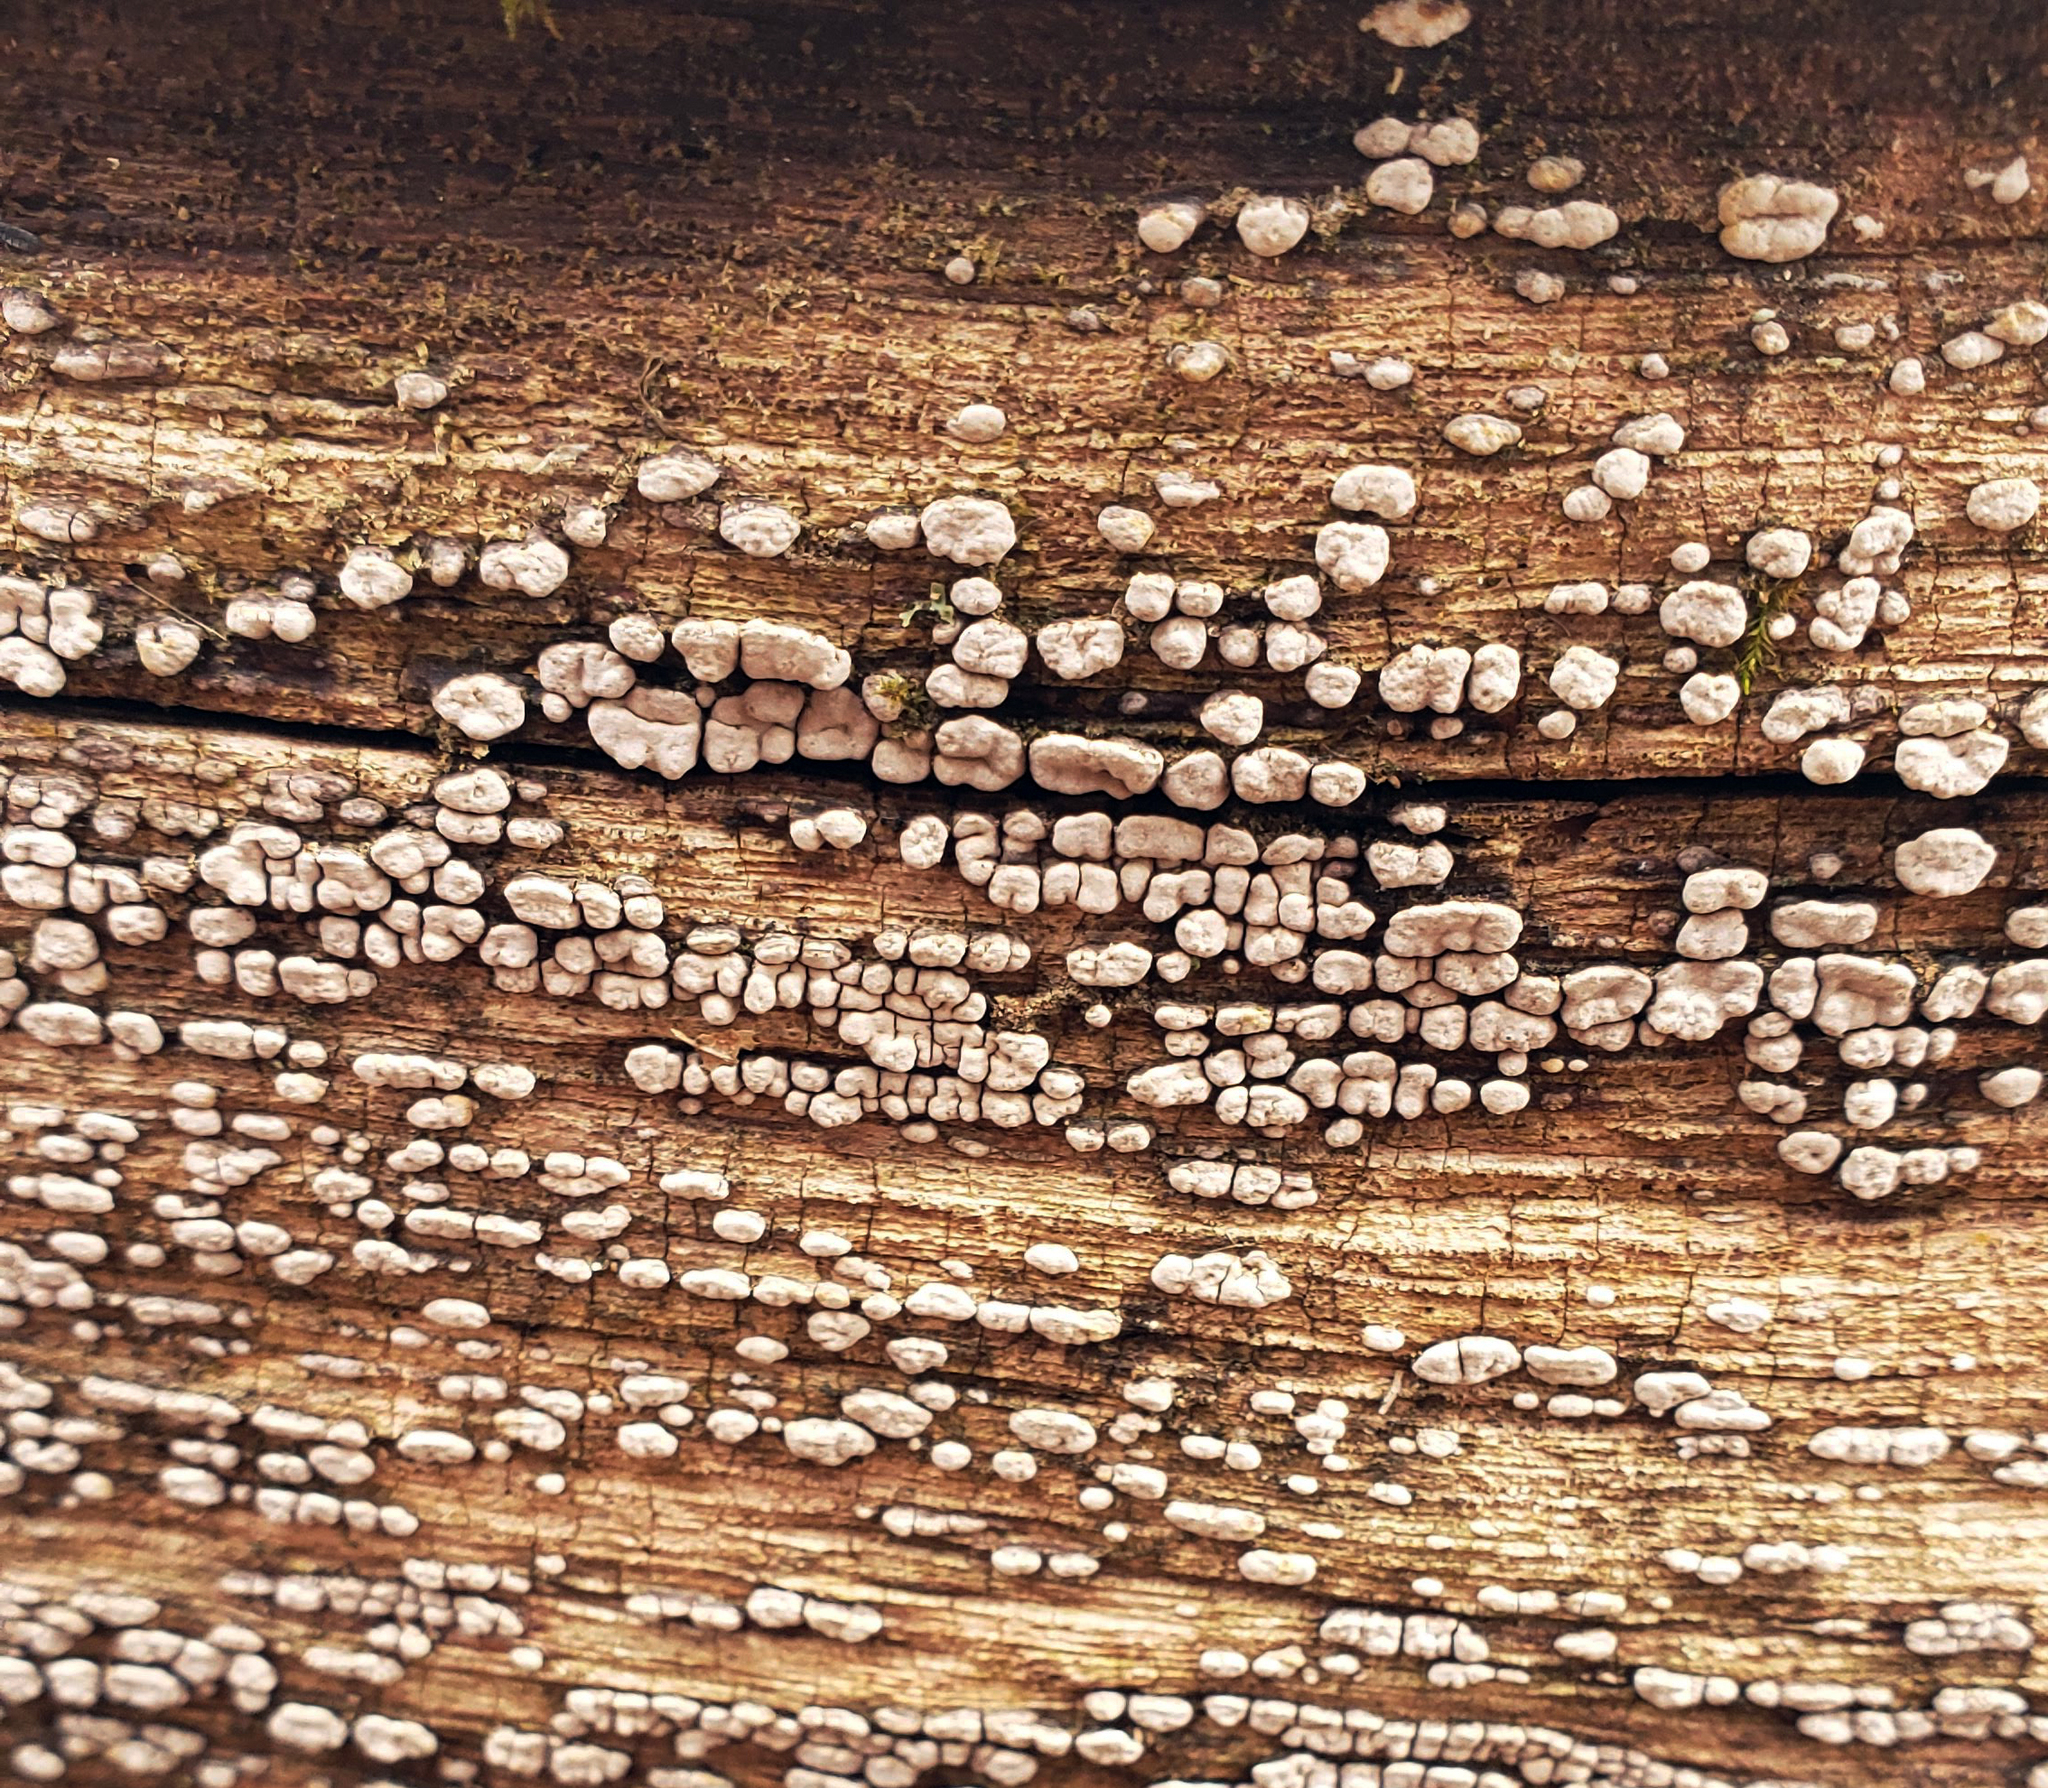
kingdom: Fungi
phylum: Basidiomycota
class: Agaricomycetes
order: Russulales
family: Stereaceae
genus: Xylobolus
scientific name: Xylobolus frustulatus
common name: Ceramic parchment
